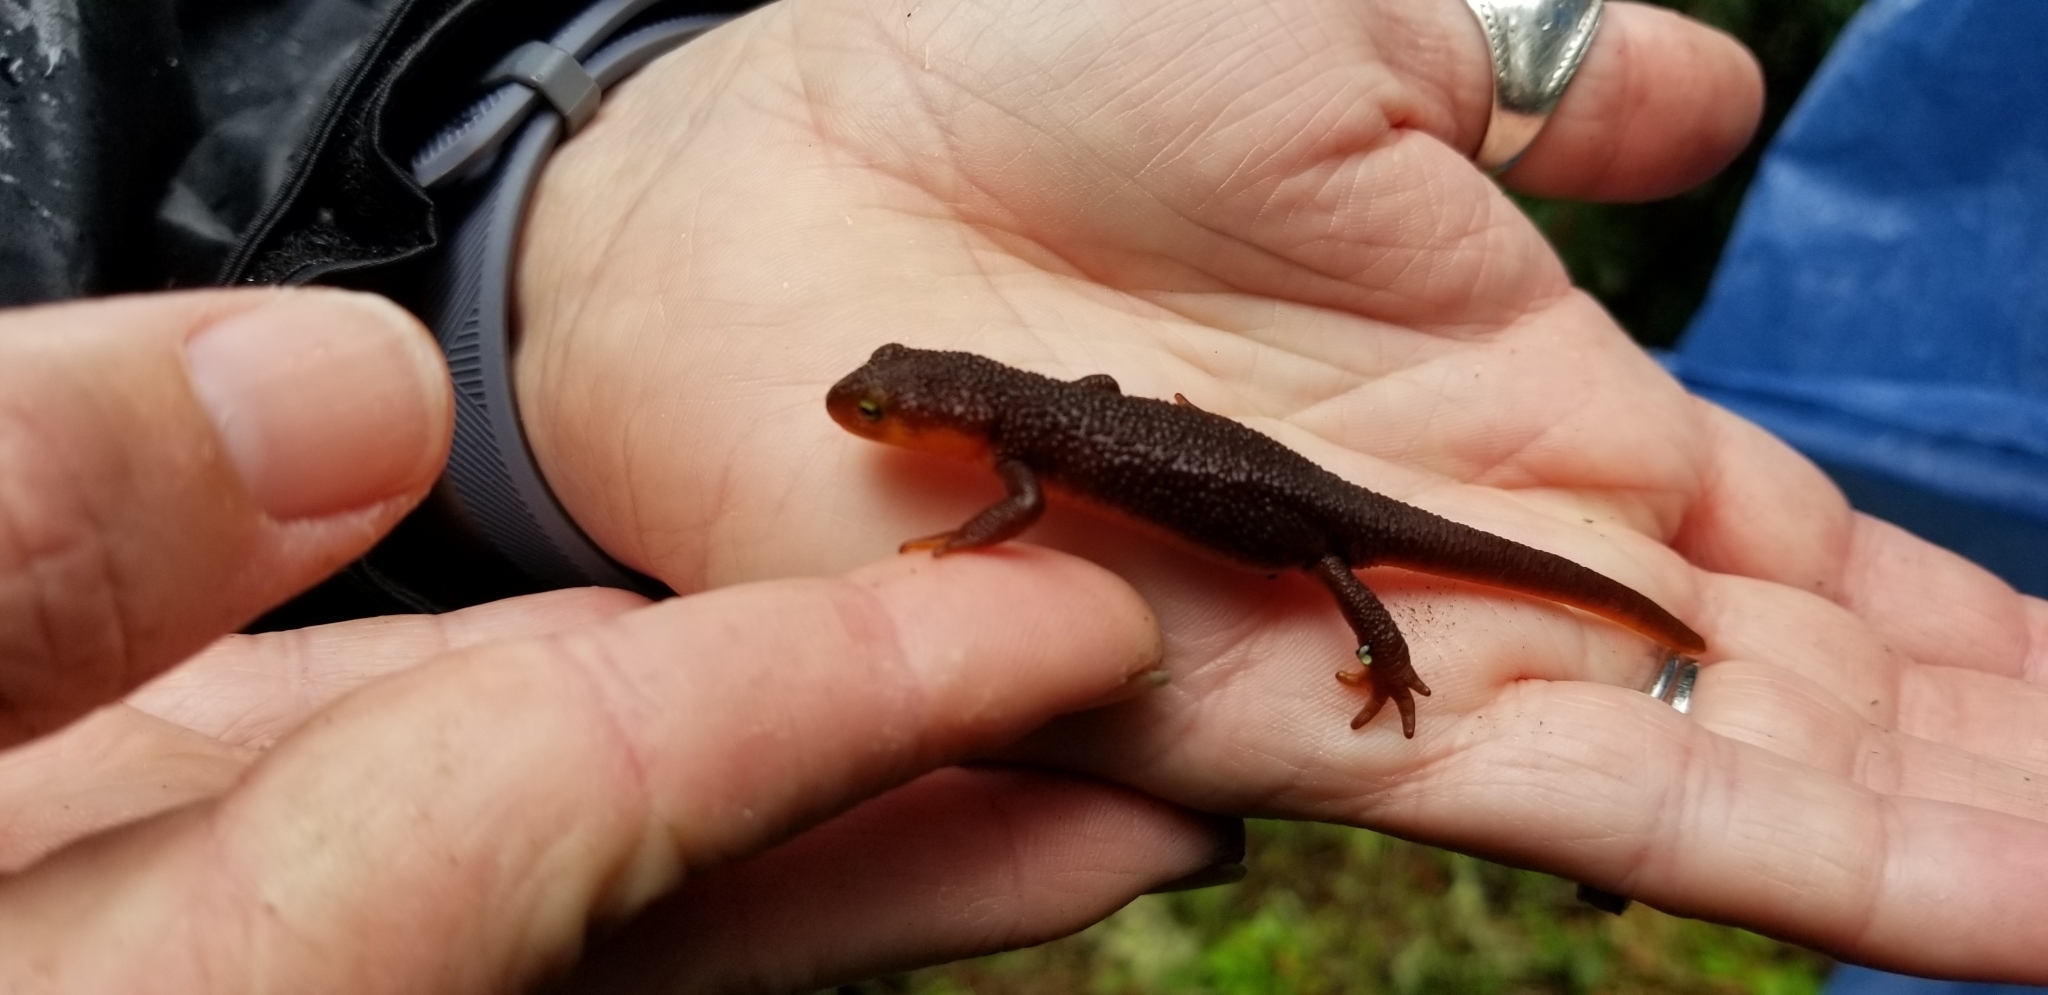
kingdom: Animalia
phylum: Chordata
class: Amphibia
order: Caudata
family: Salamandridae
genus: Taricha
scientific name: Taricha granulosa
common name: Roughskin newt
